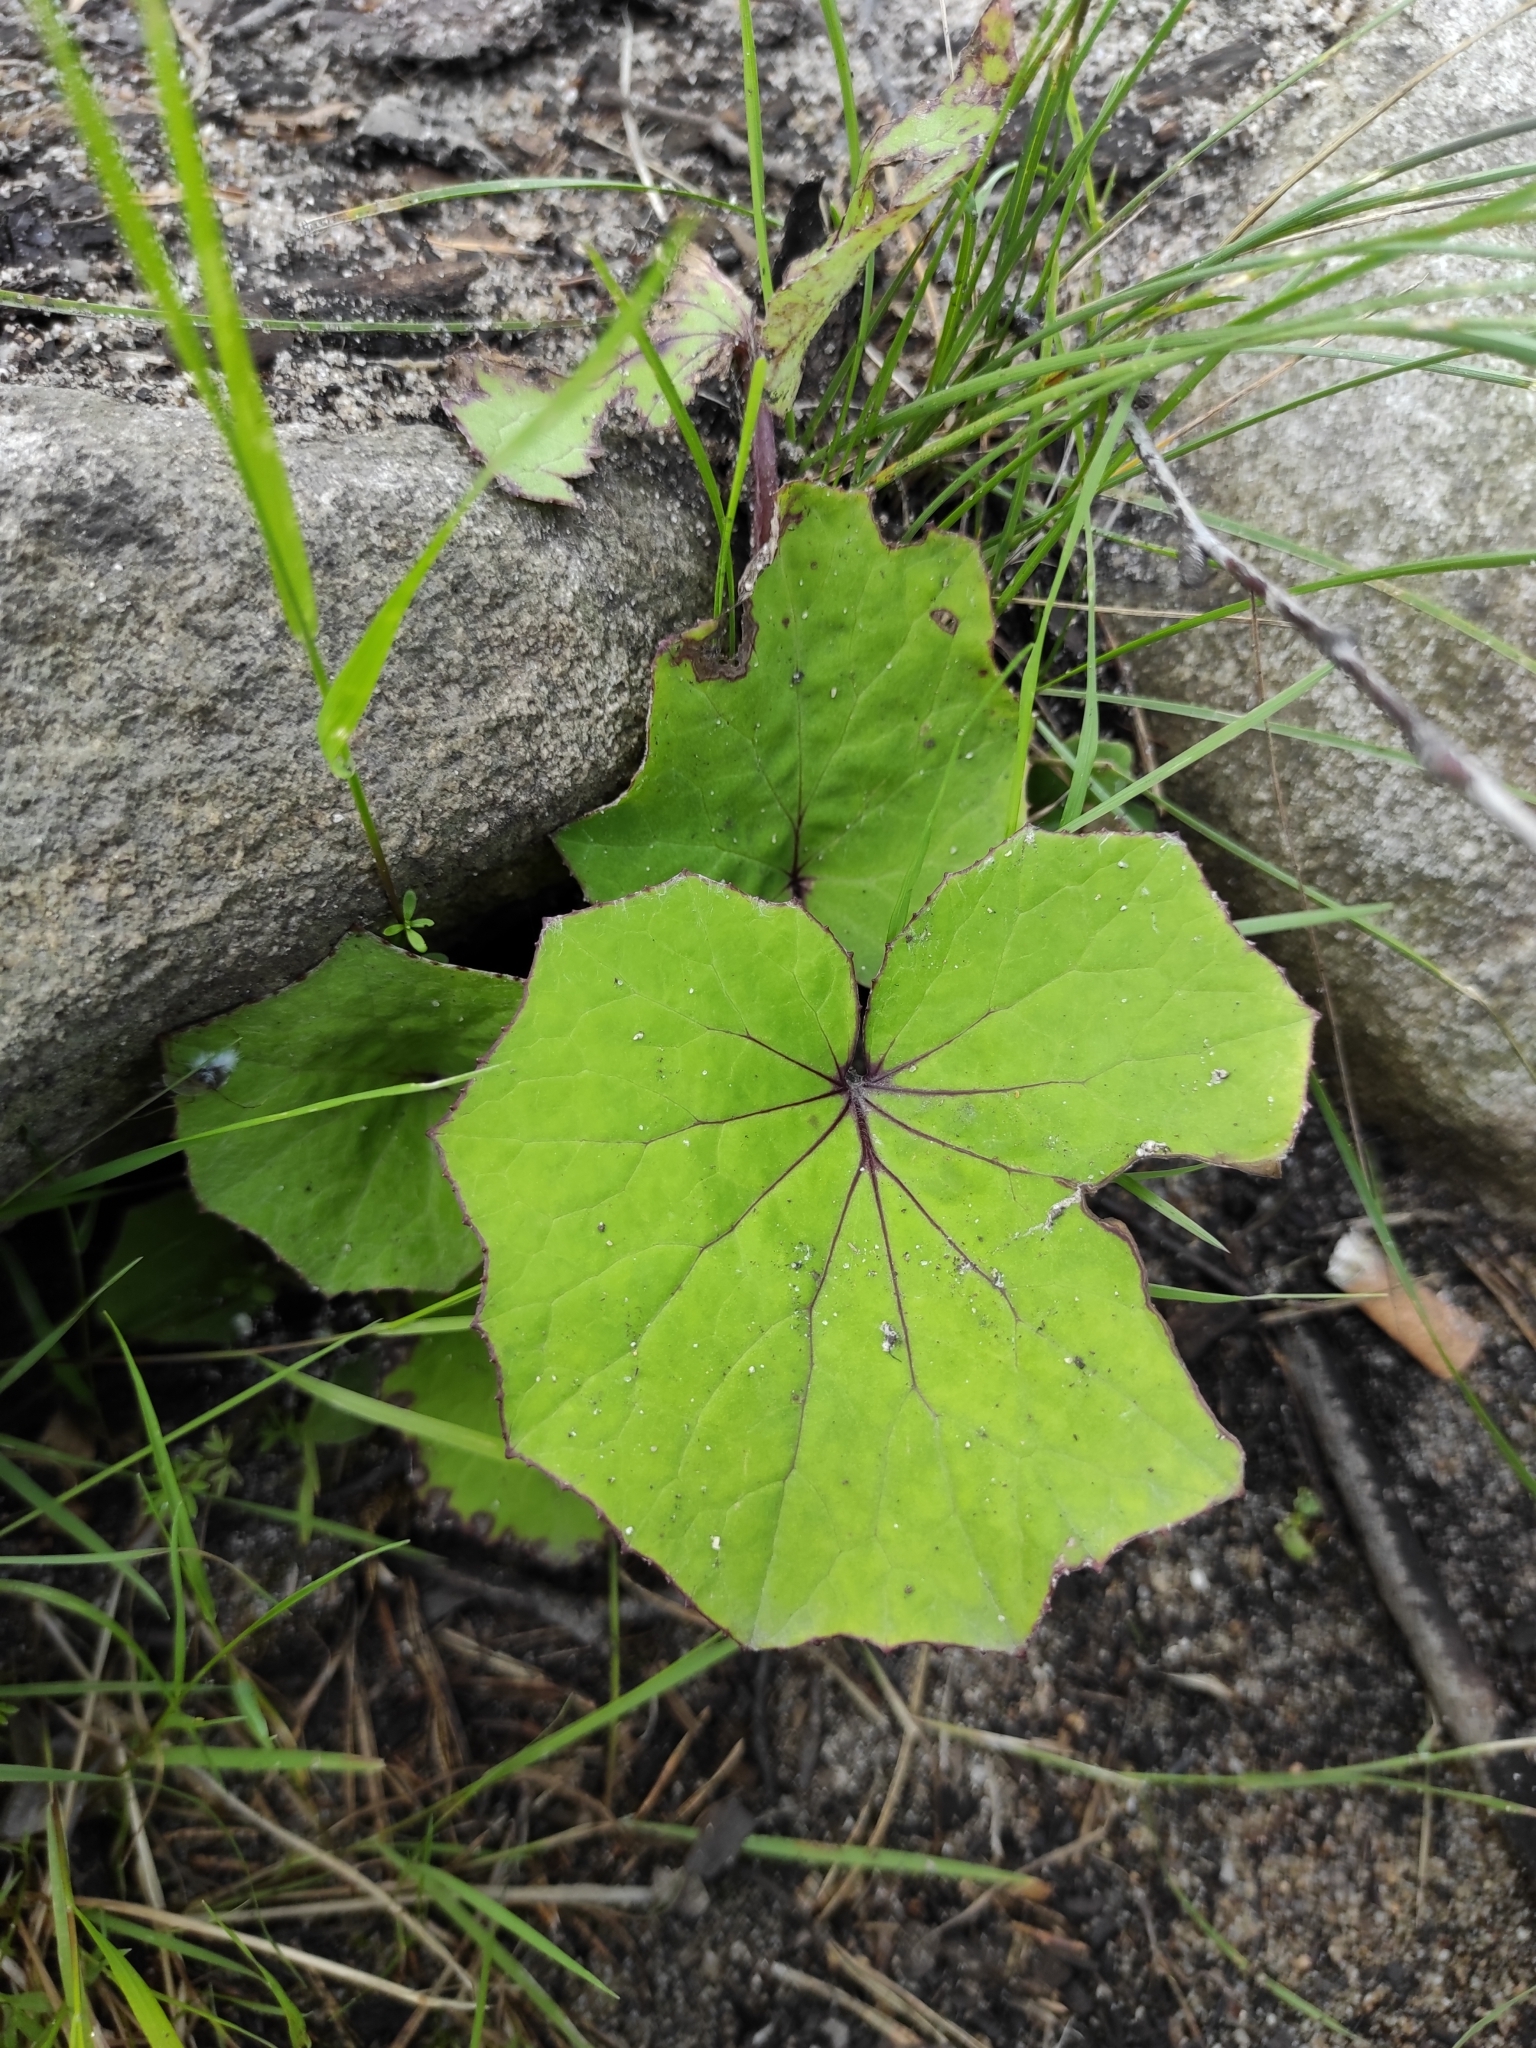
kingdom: Plantae
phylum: Tracheophyta
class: Magnoliopsida
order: Asterales
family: Asteraceae
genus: Tussilago
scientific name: Tussilago farfara
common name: Coltsfoot
